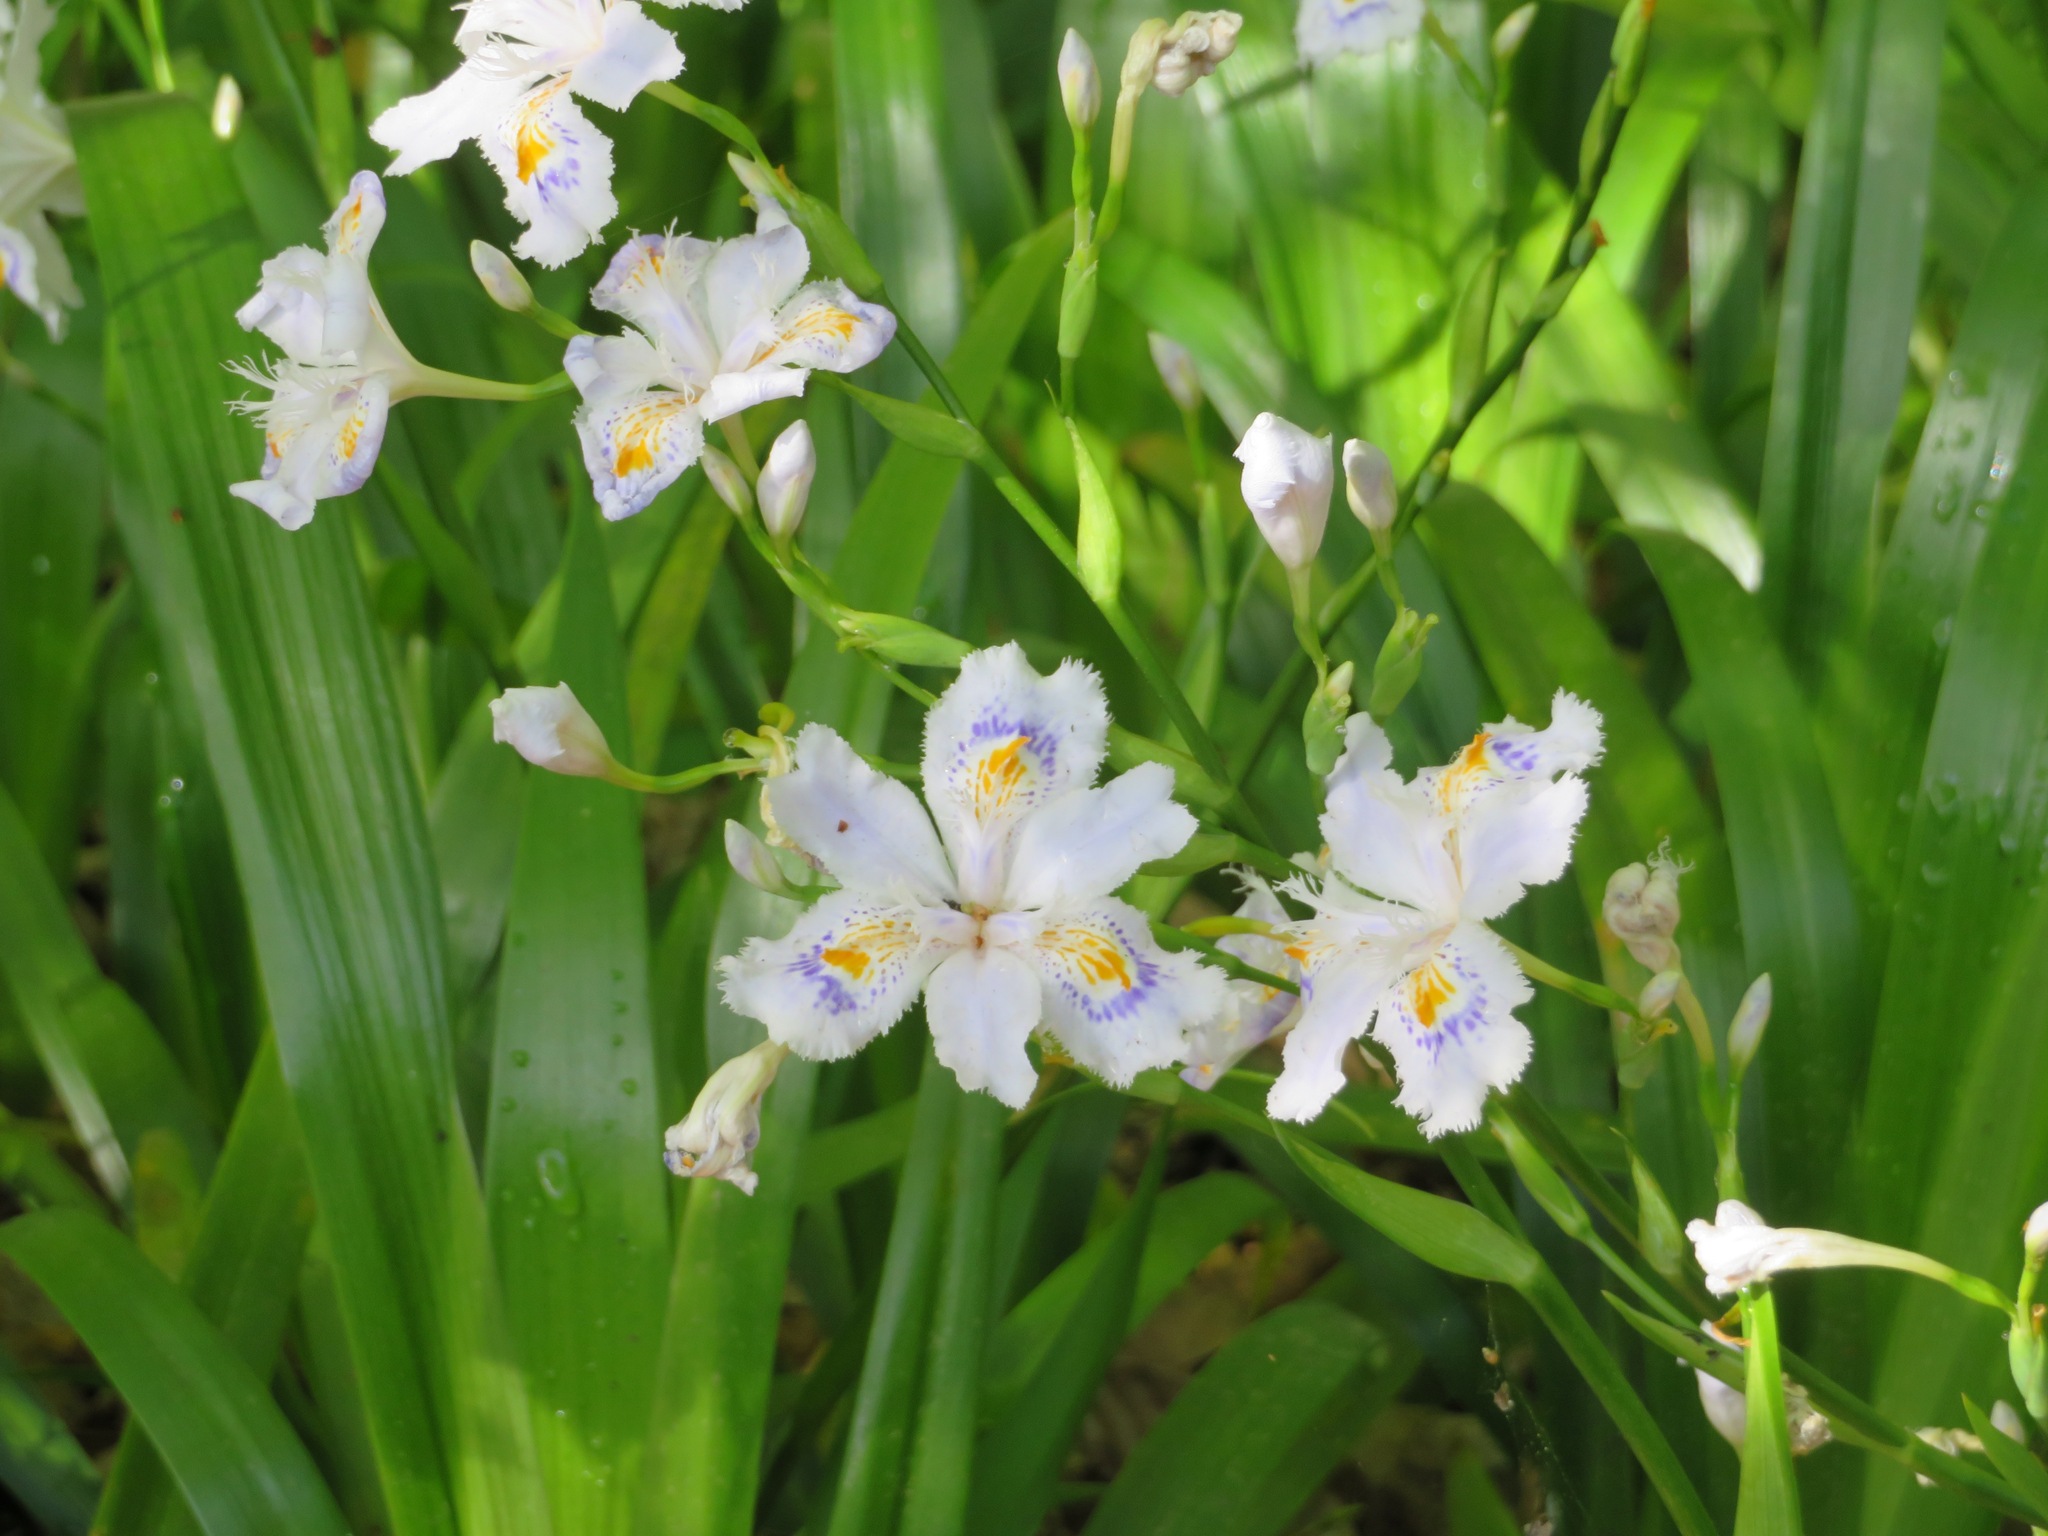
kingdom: Plantae
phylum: Tracheophyta
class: Liliopsida
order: Asparagales
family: Iridaceae
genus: Iris
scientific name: Iris japonica
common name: Butterfly-flower
